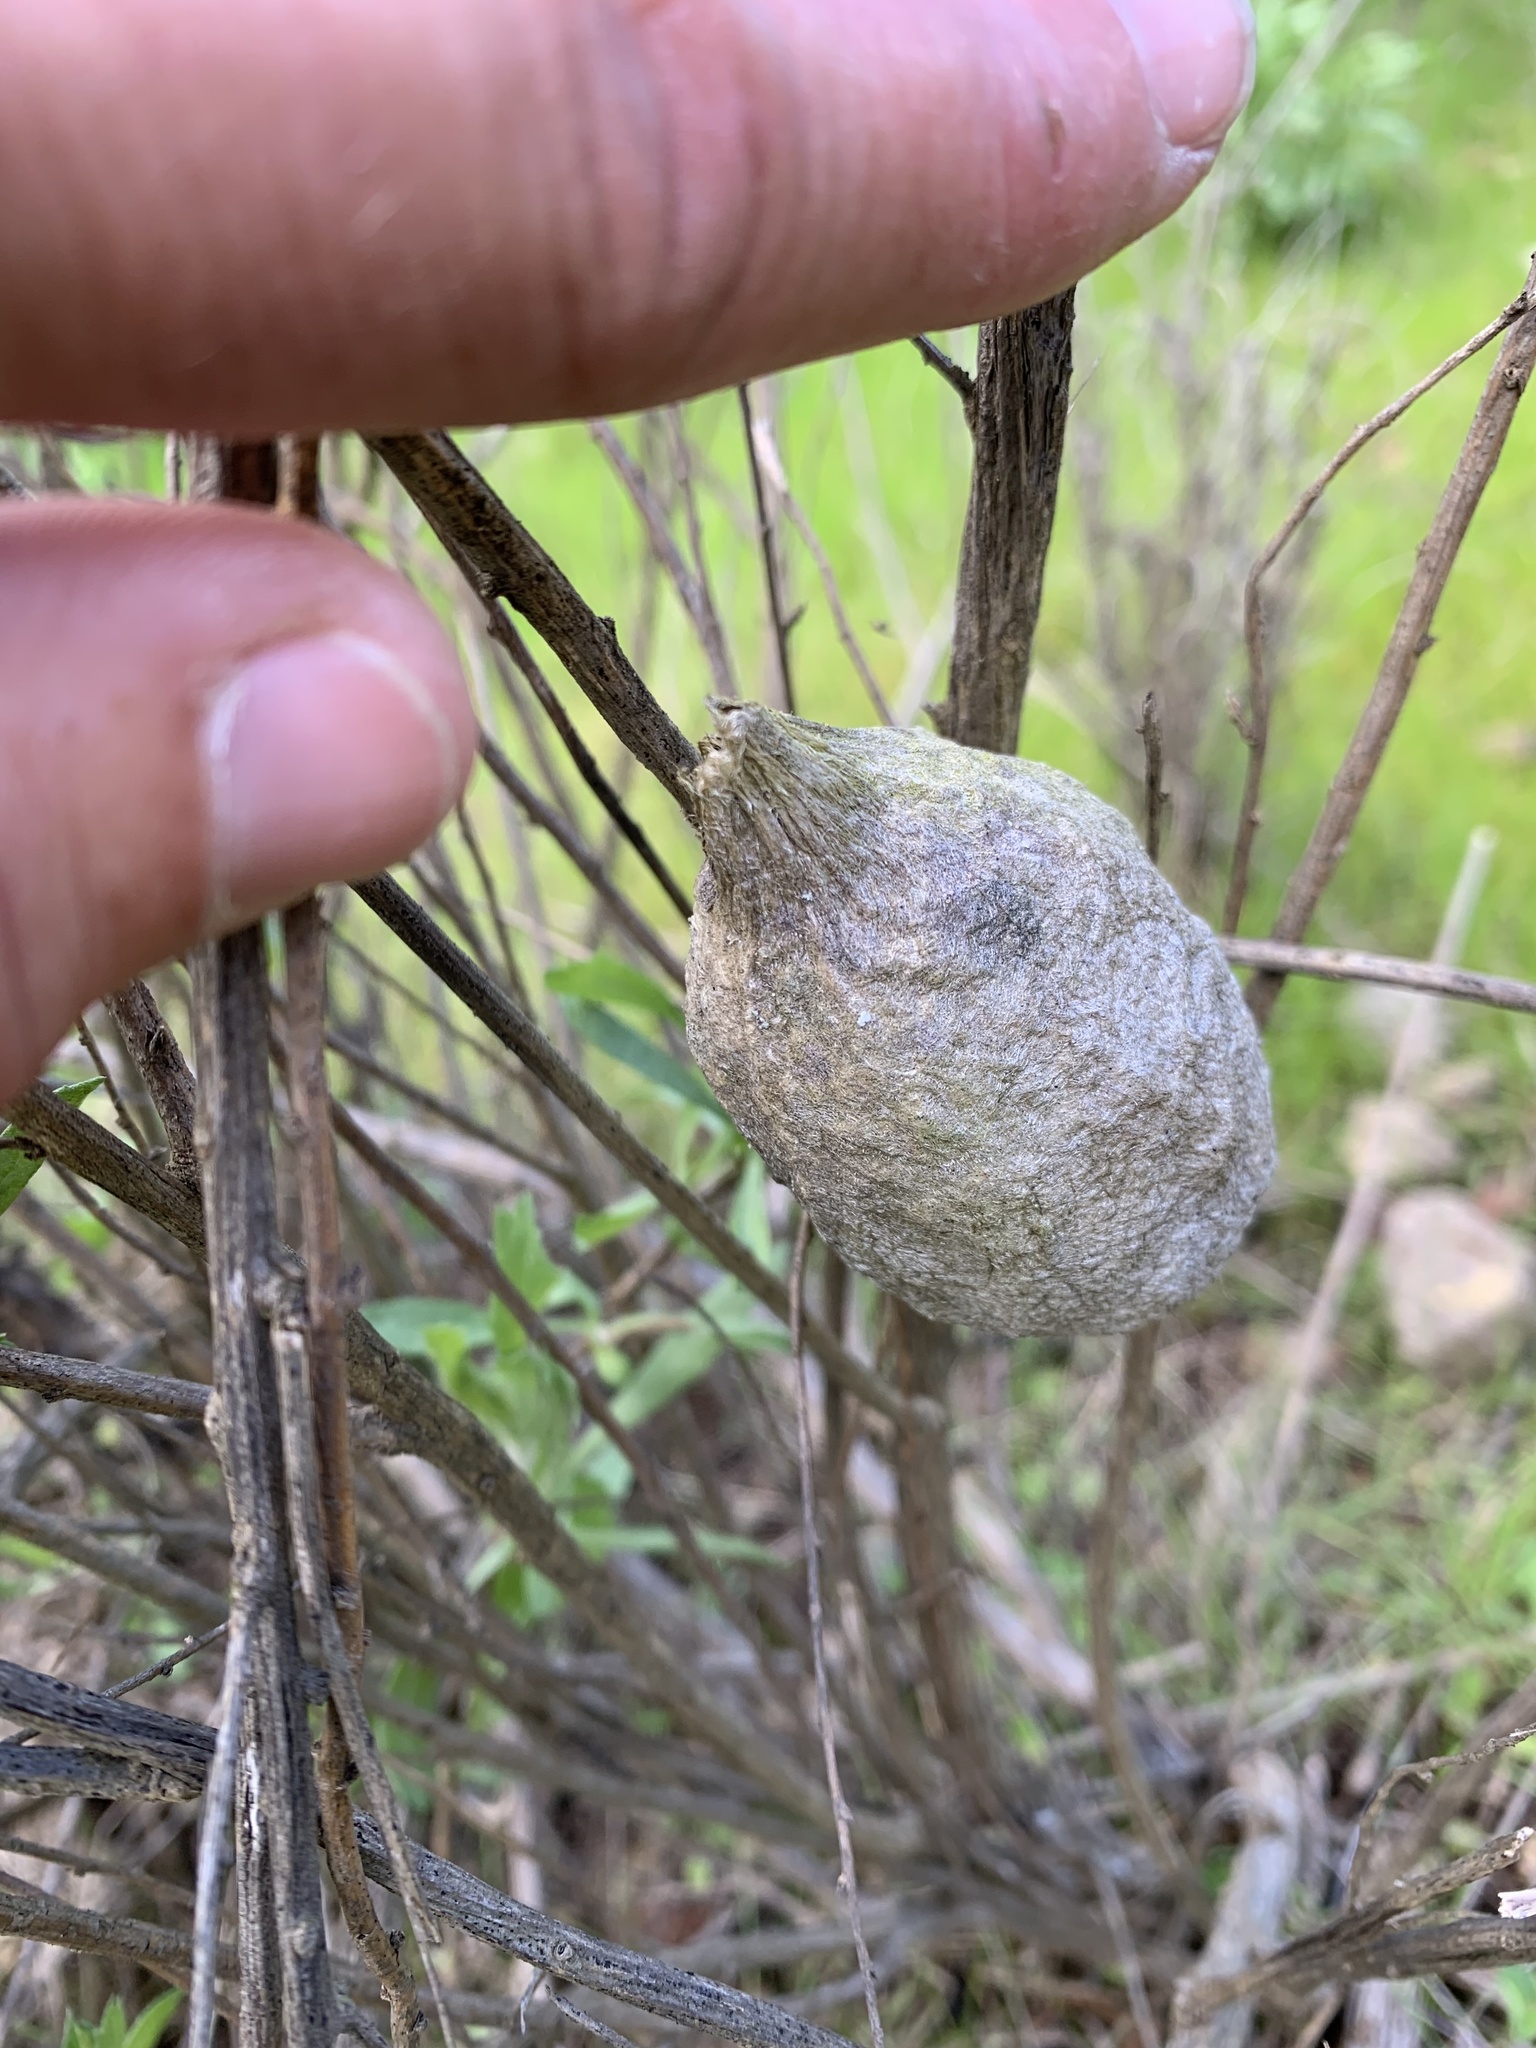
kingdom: Animalia
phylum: Arthropoda
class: Insecta
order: Lepidoptera
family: Saturniidae
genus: Hyalophora
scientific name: Hyalophora euryalus
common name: Ceanothus silkmoth
